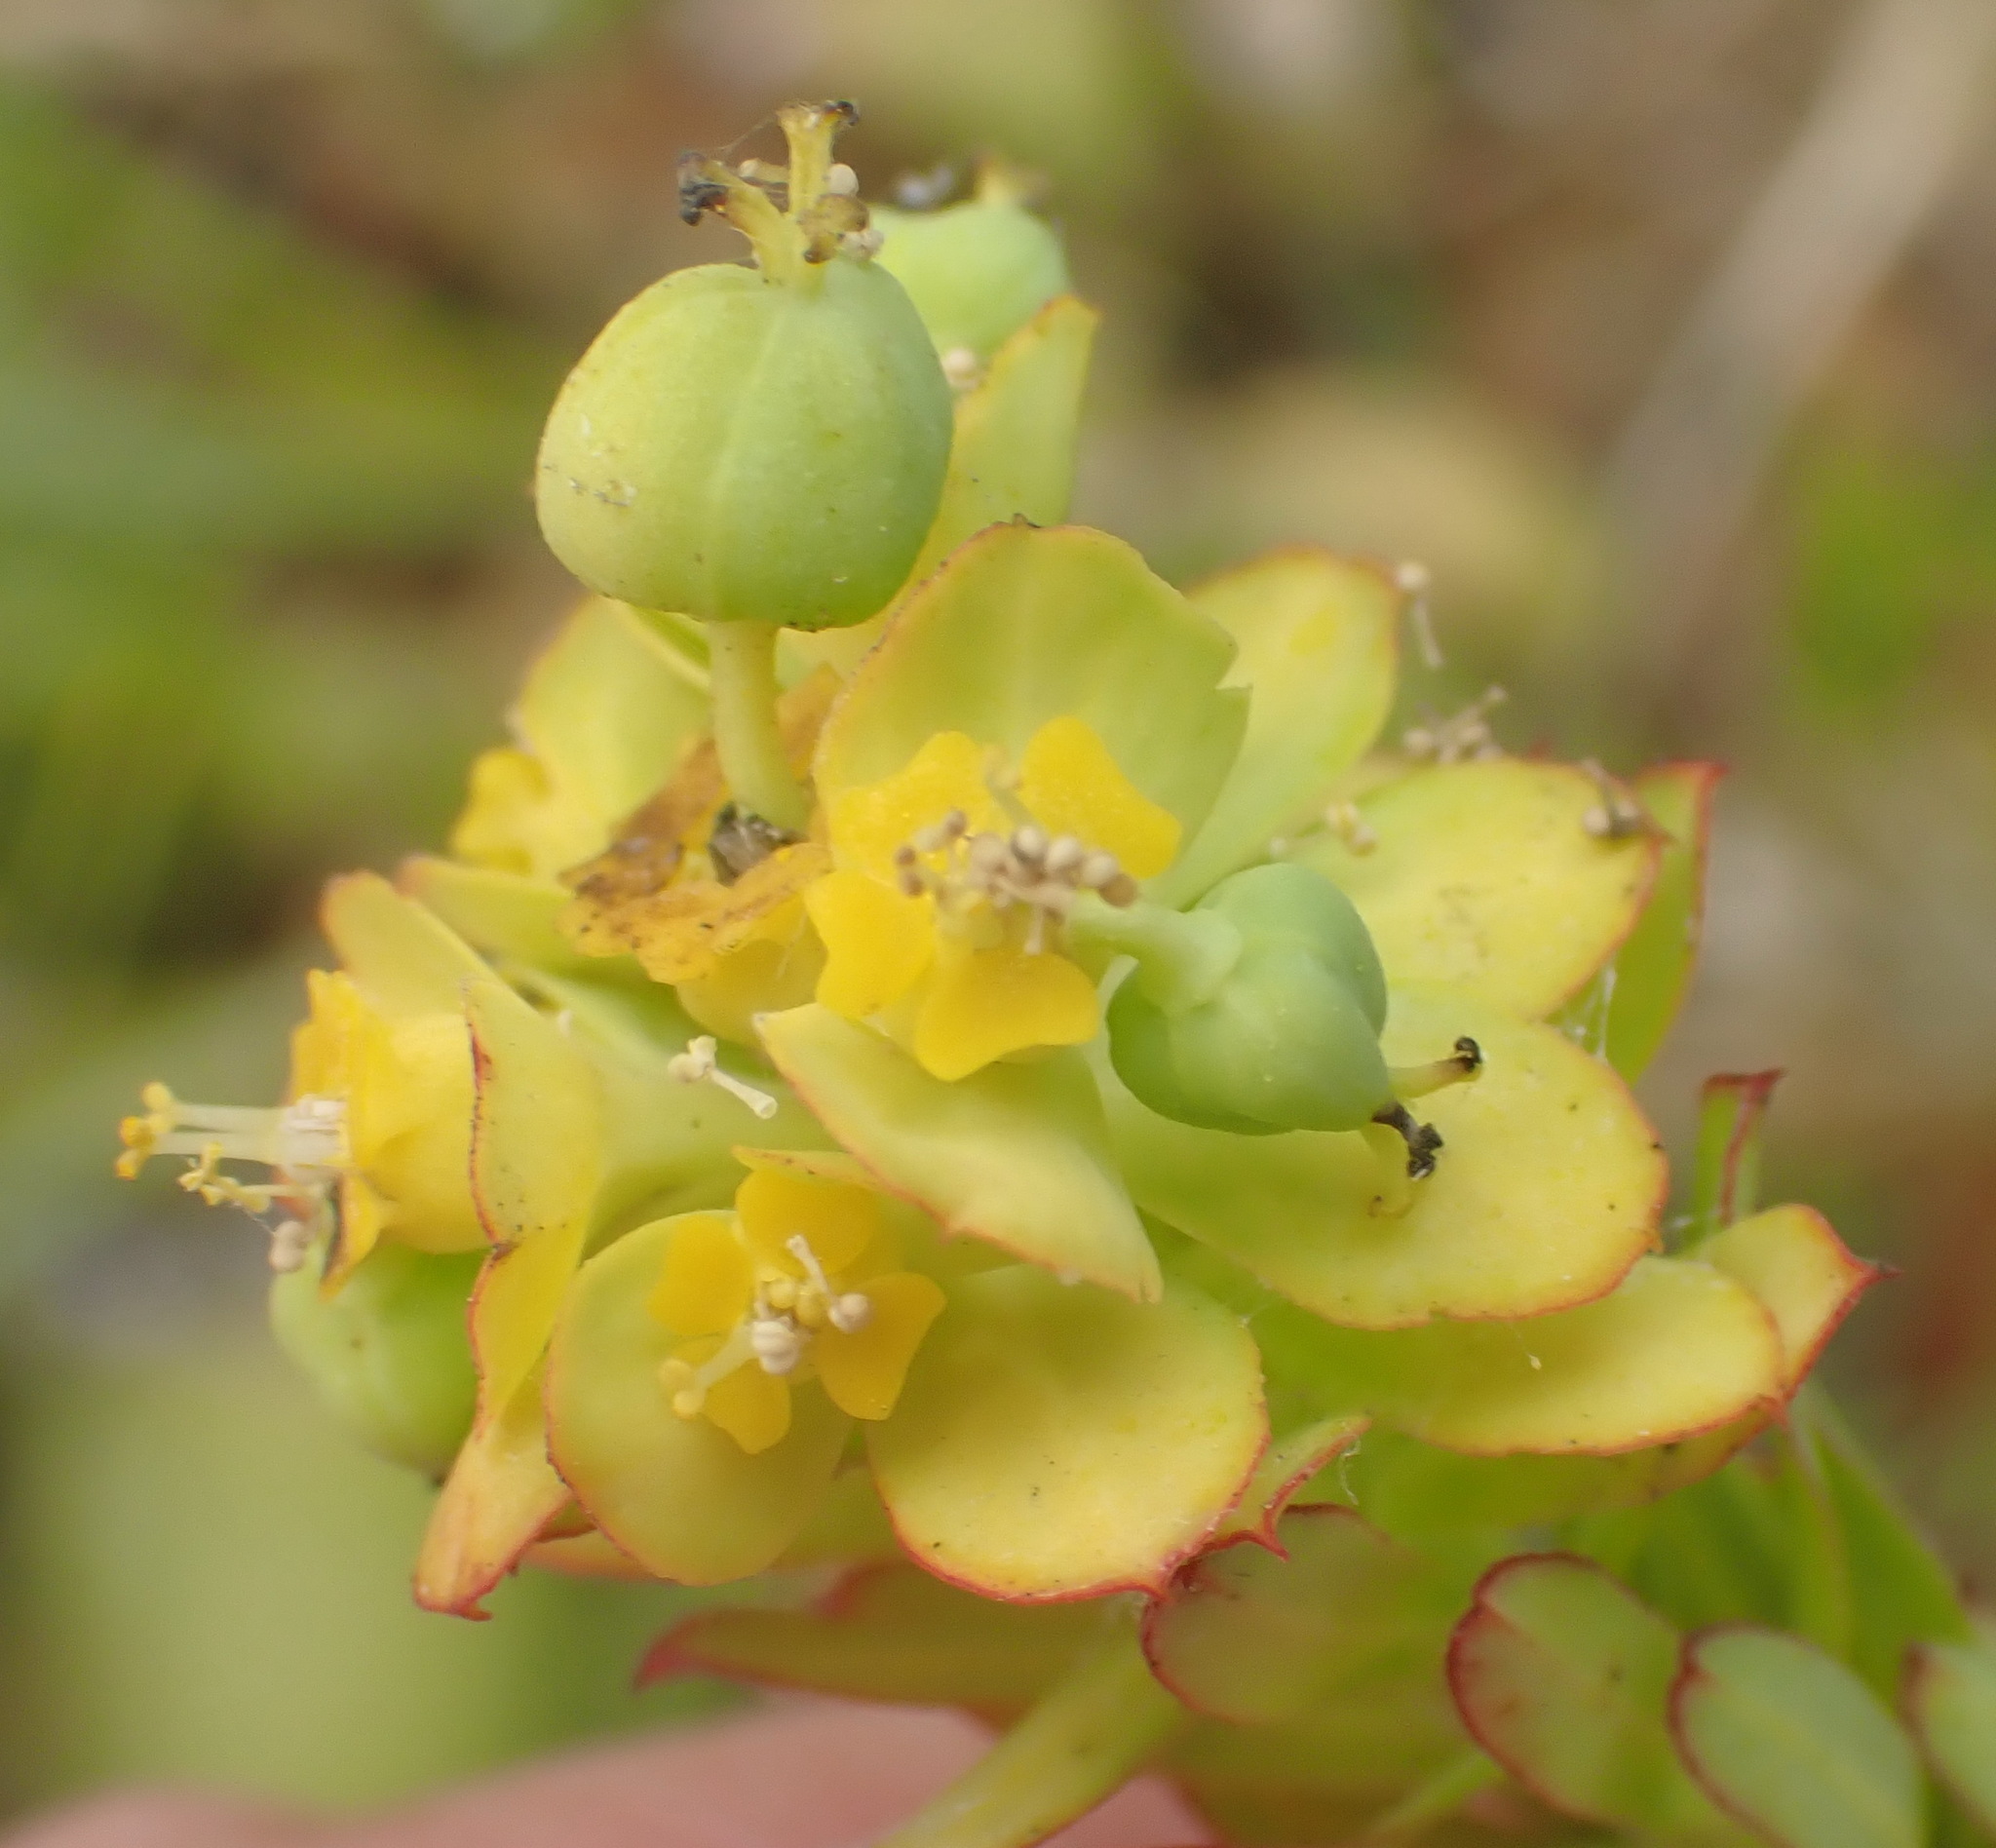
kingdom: Plantae
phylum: Tracheophyta
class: Magnoliopsida
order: Malpighiales
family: Euphorbiaceae
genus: Euphorbia
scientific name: Euphorbia foliosa
